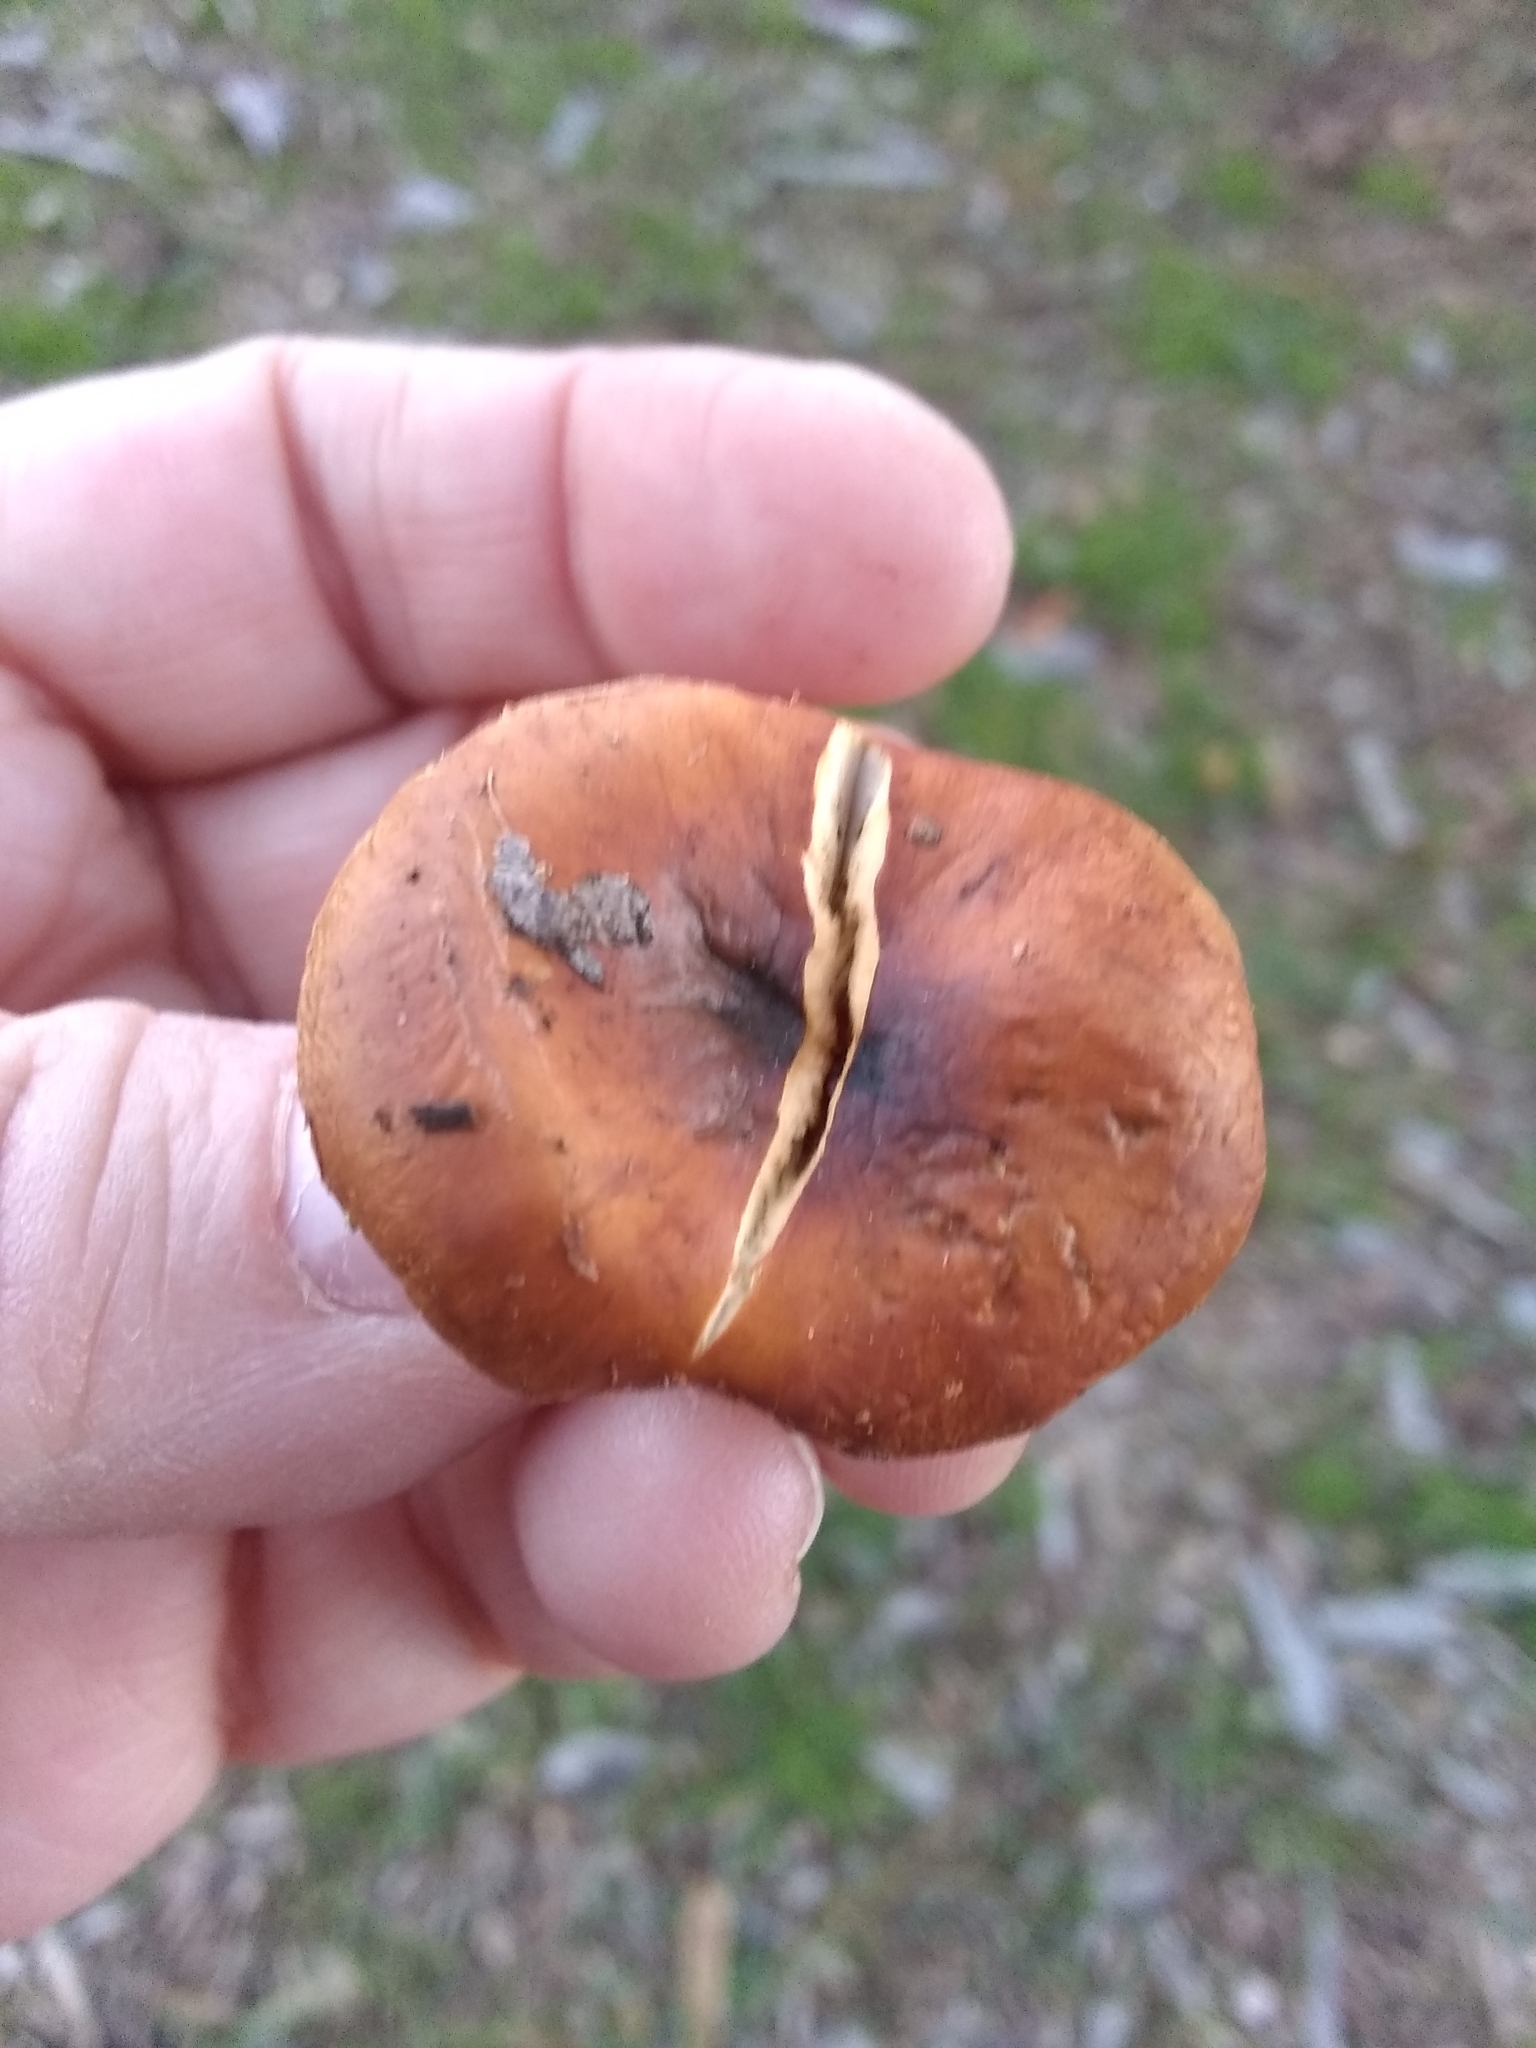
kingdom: Fungi
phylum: Basidiomycota
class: Agaricomycetes
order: Agaricales
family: Strophariaceae
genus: Pholiota
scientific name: Pholiota velaglutinosa
